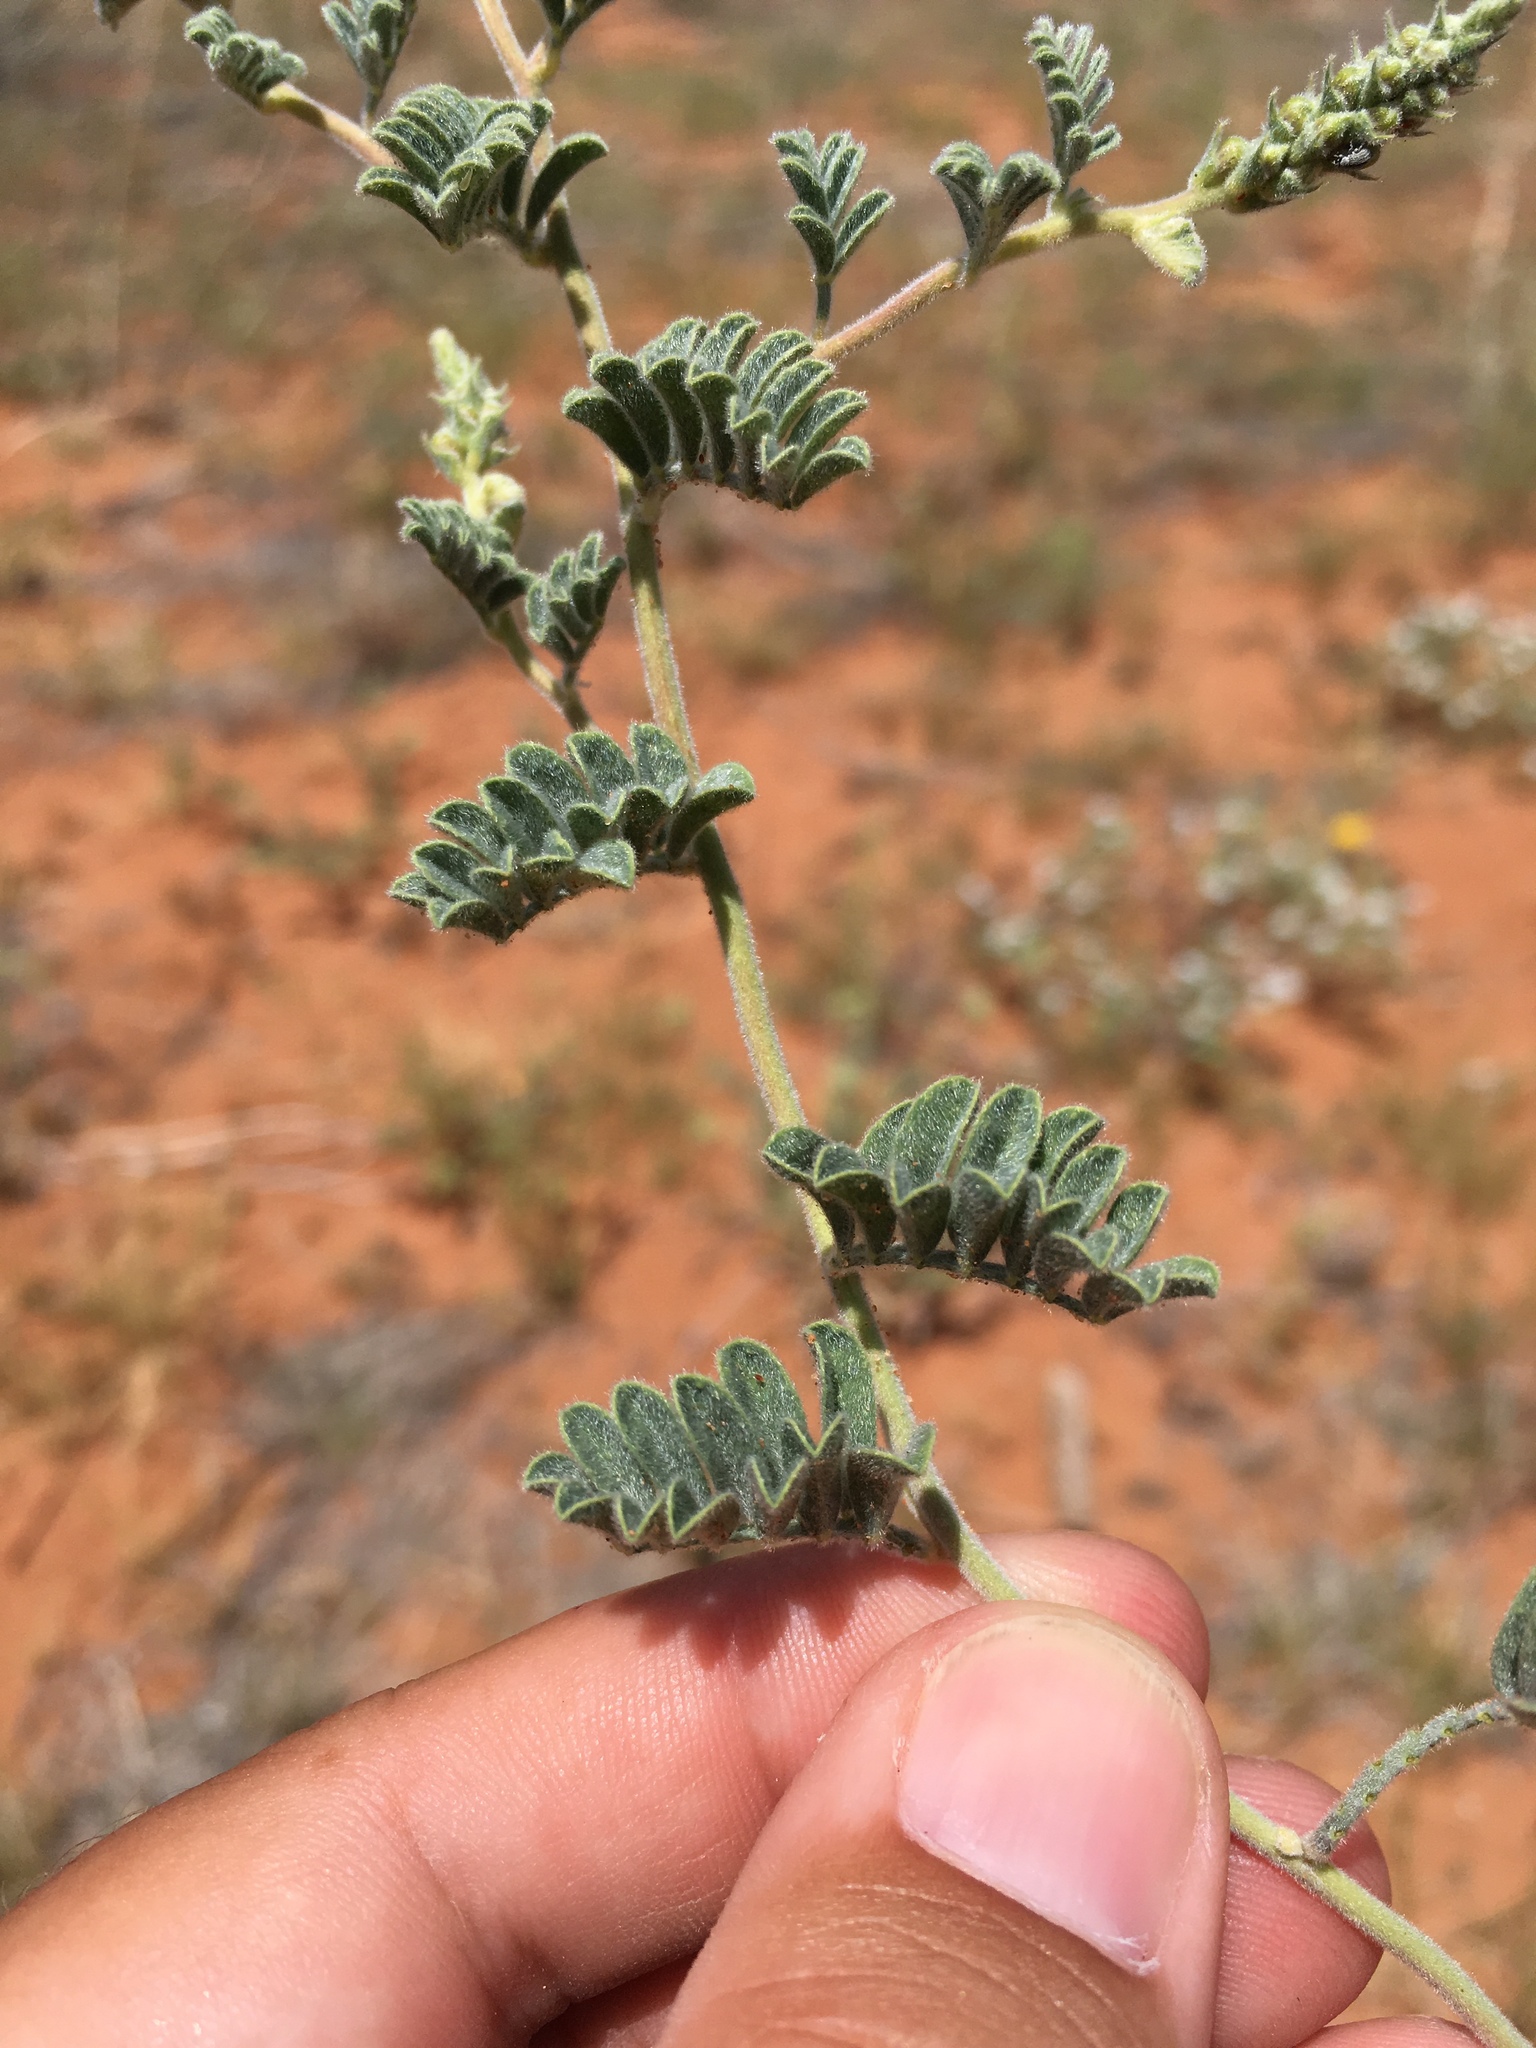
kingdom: Plantae
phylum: Tracheophyta
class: Magnoliopsida
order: Fabales
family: Fabaceae
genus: Dalea
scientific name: Dalea lanata
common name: Woolly dalea
